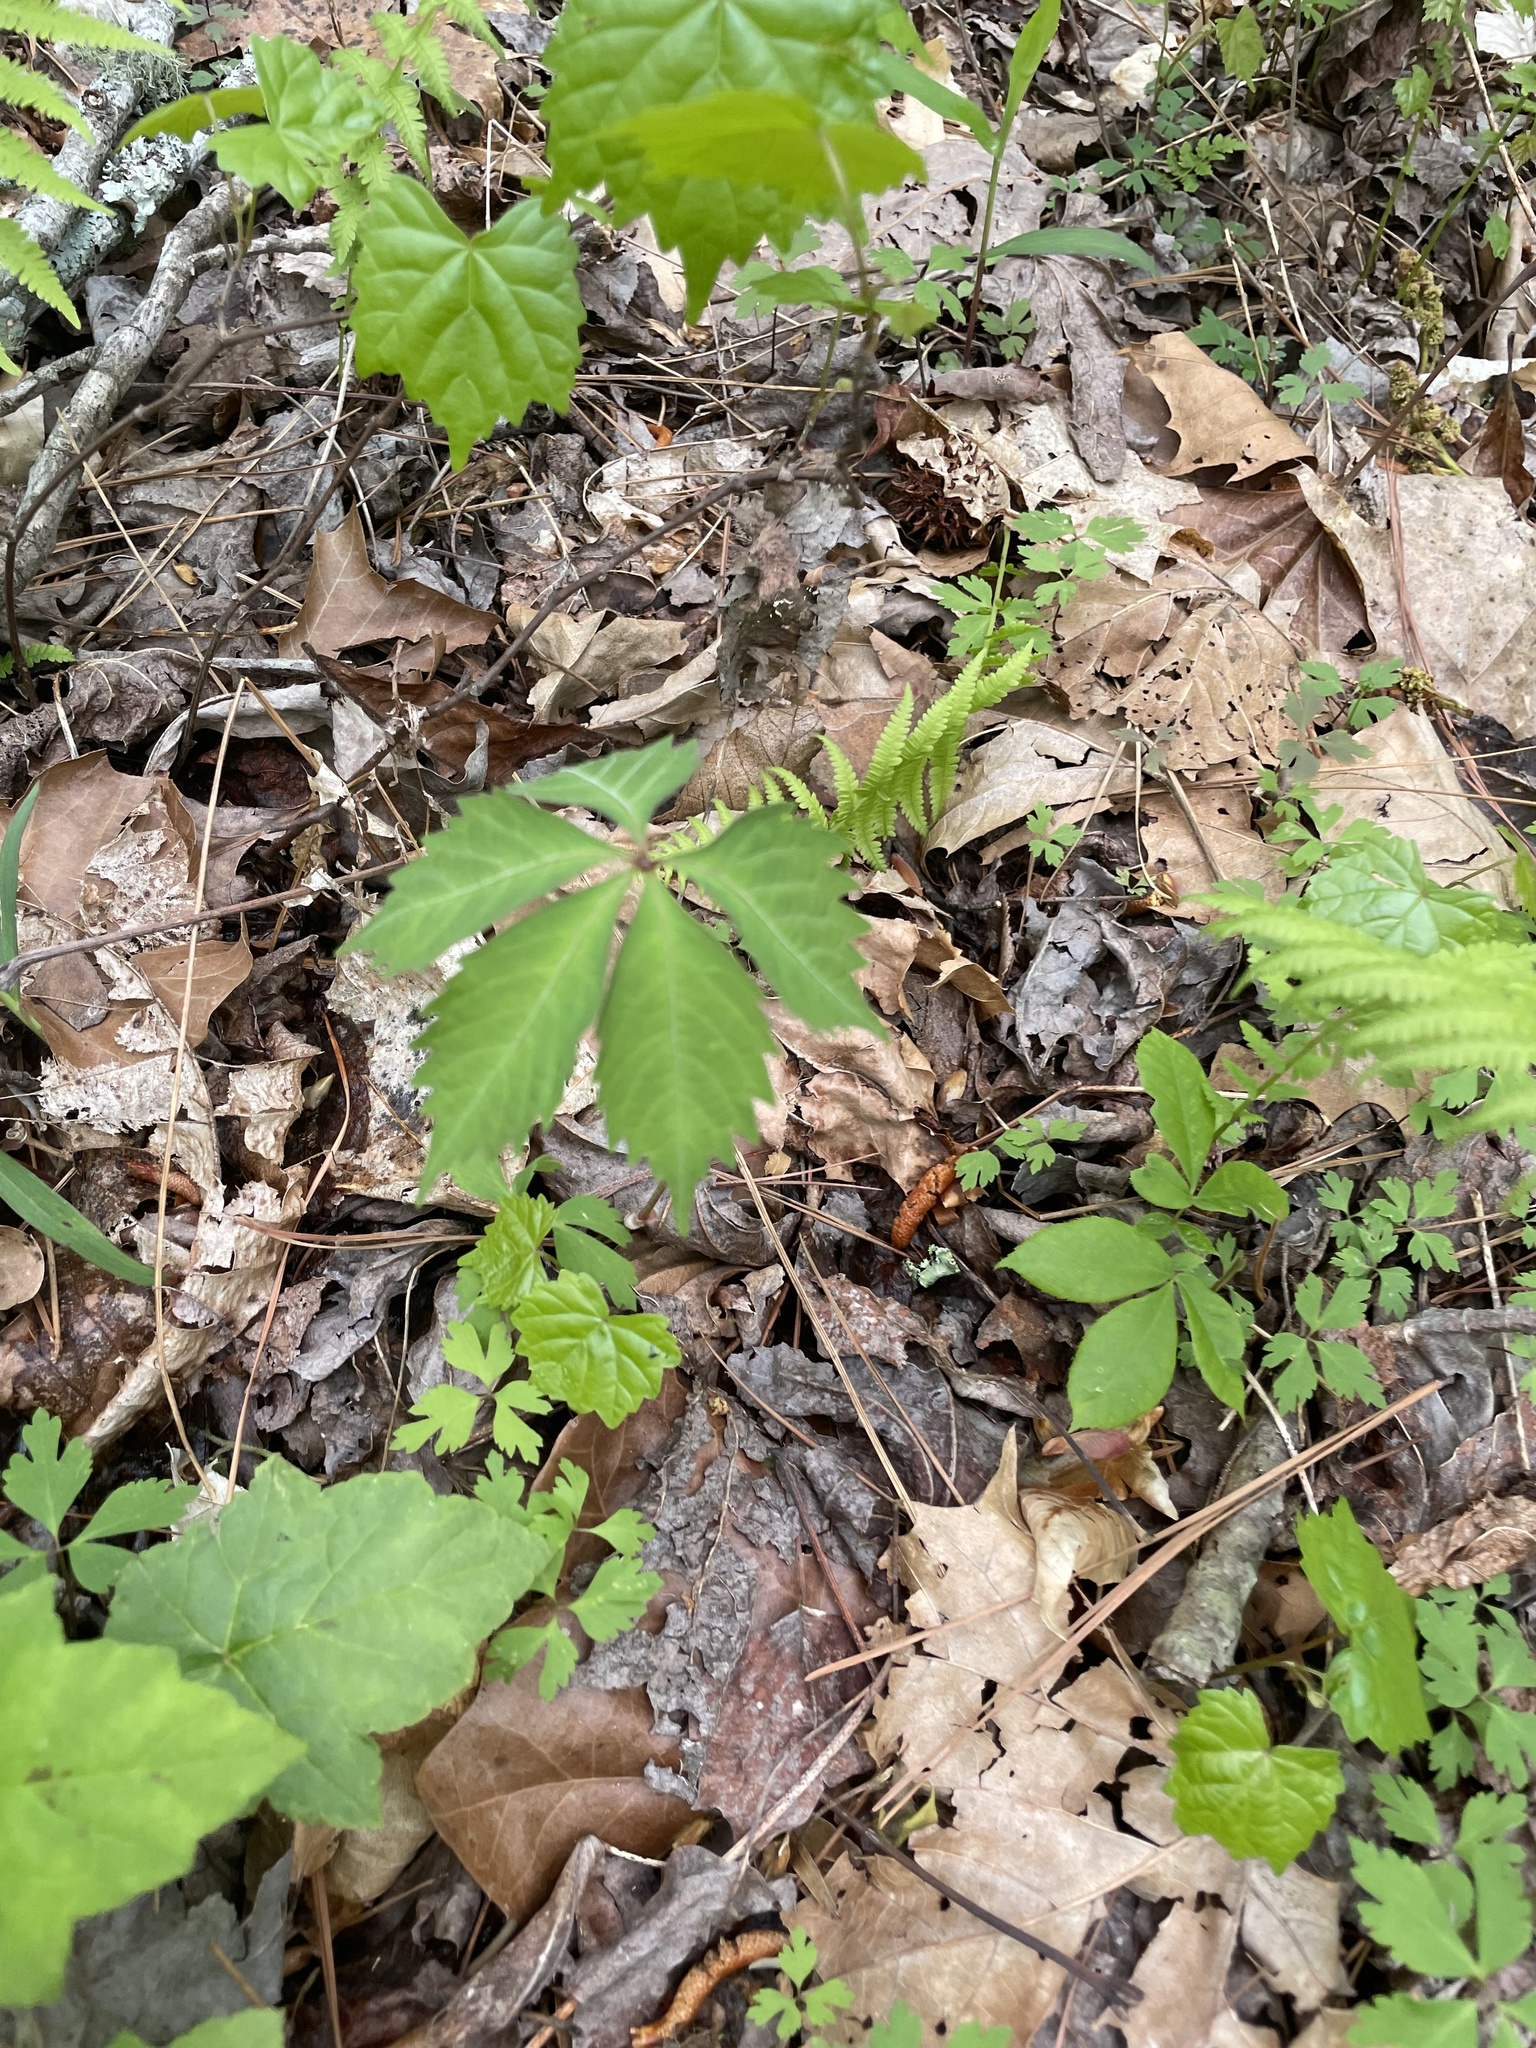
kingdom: Plantae
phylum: Tracheophyta
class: Magnoliopsida
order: Vitales
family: Vitaceae
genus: Parthenocissus
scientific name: Parthenocissus quinquefolia
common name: Virginia-creeper
